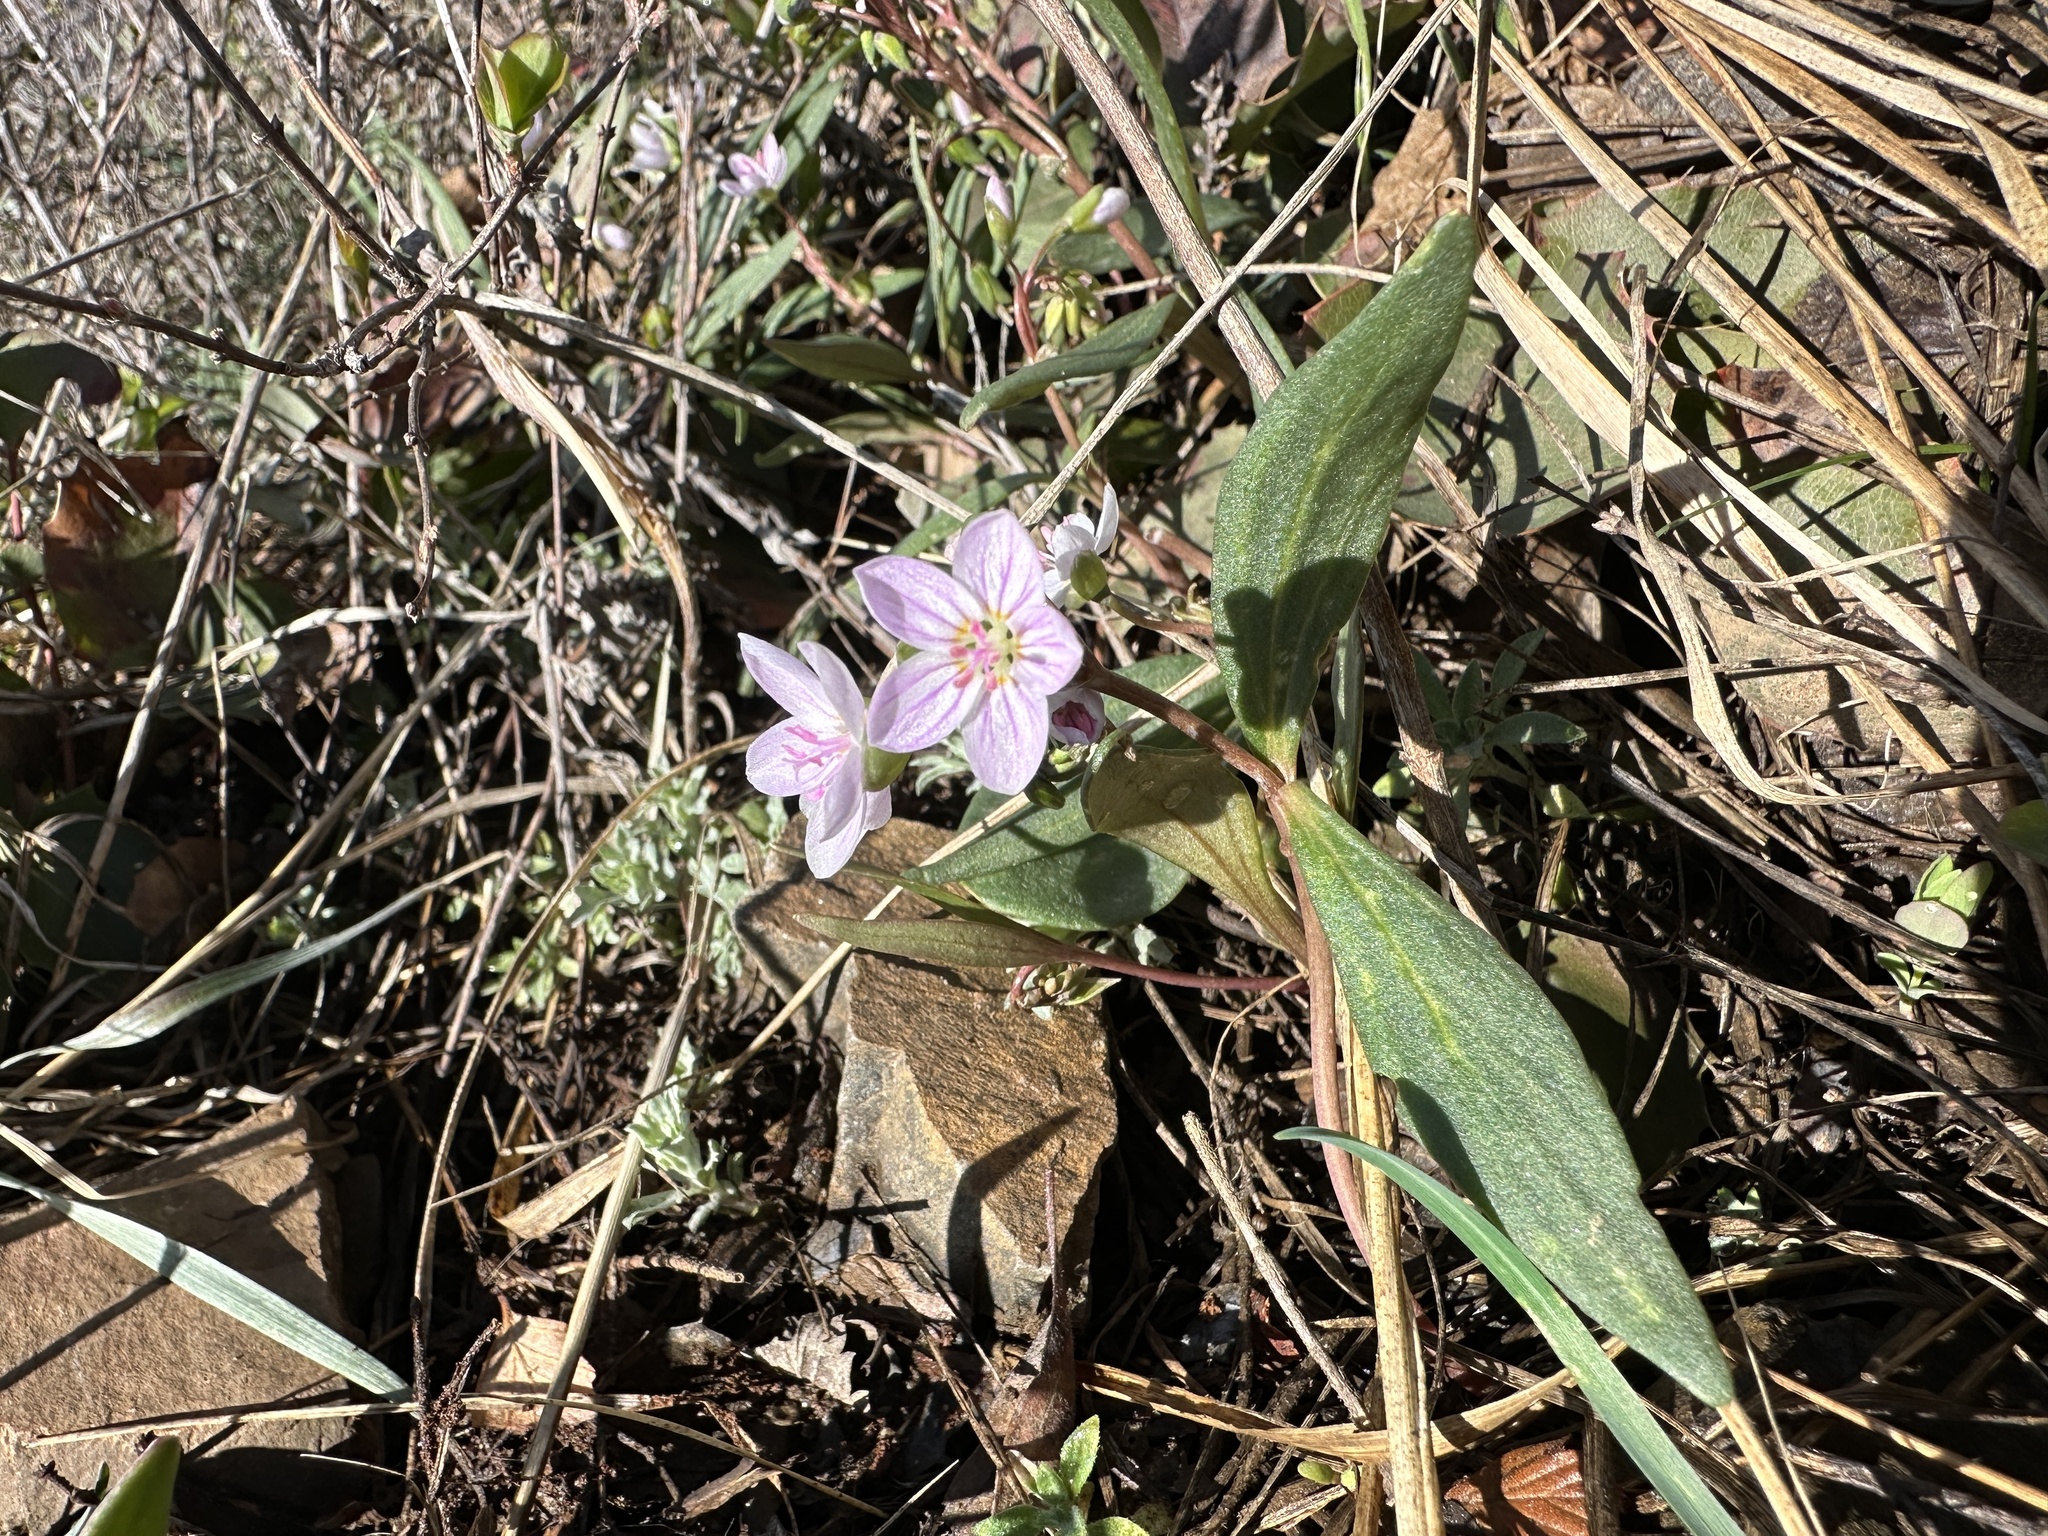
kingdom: Plantae
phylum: Tracheophyta
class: Magnoliopsida
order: Caryophyllales
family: Montiaceae
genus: Claytonia
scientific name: Claytonia rosea
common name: Rocky mountain spring-beauty
